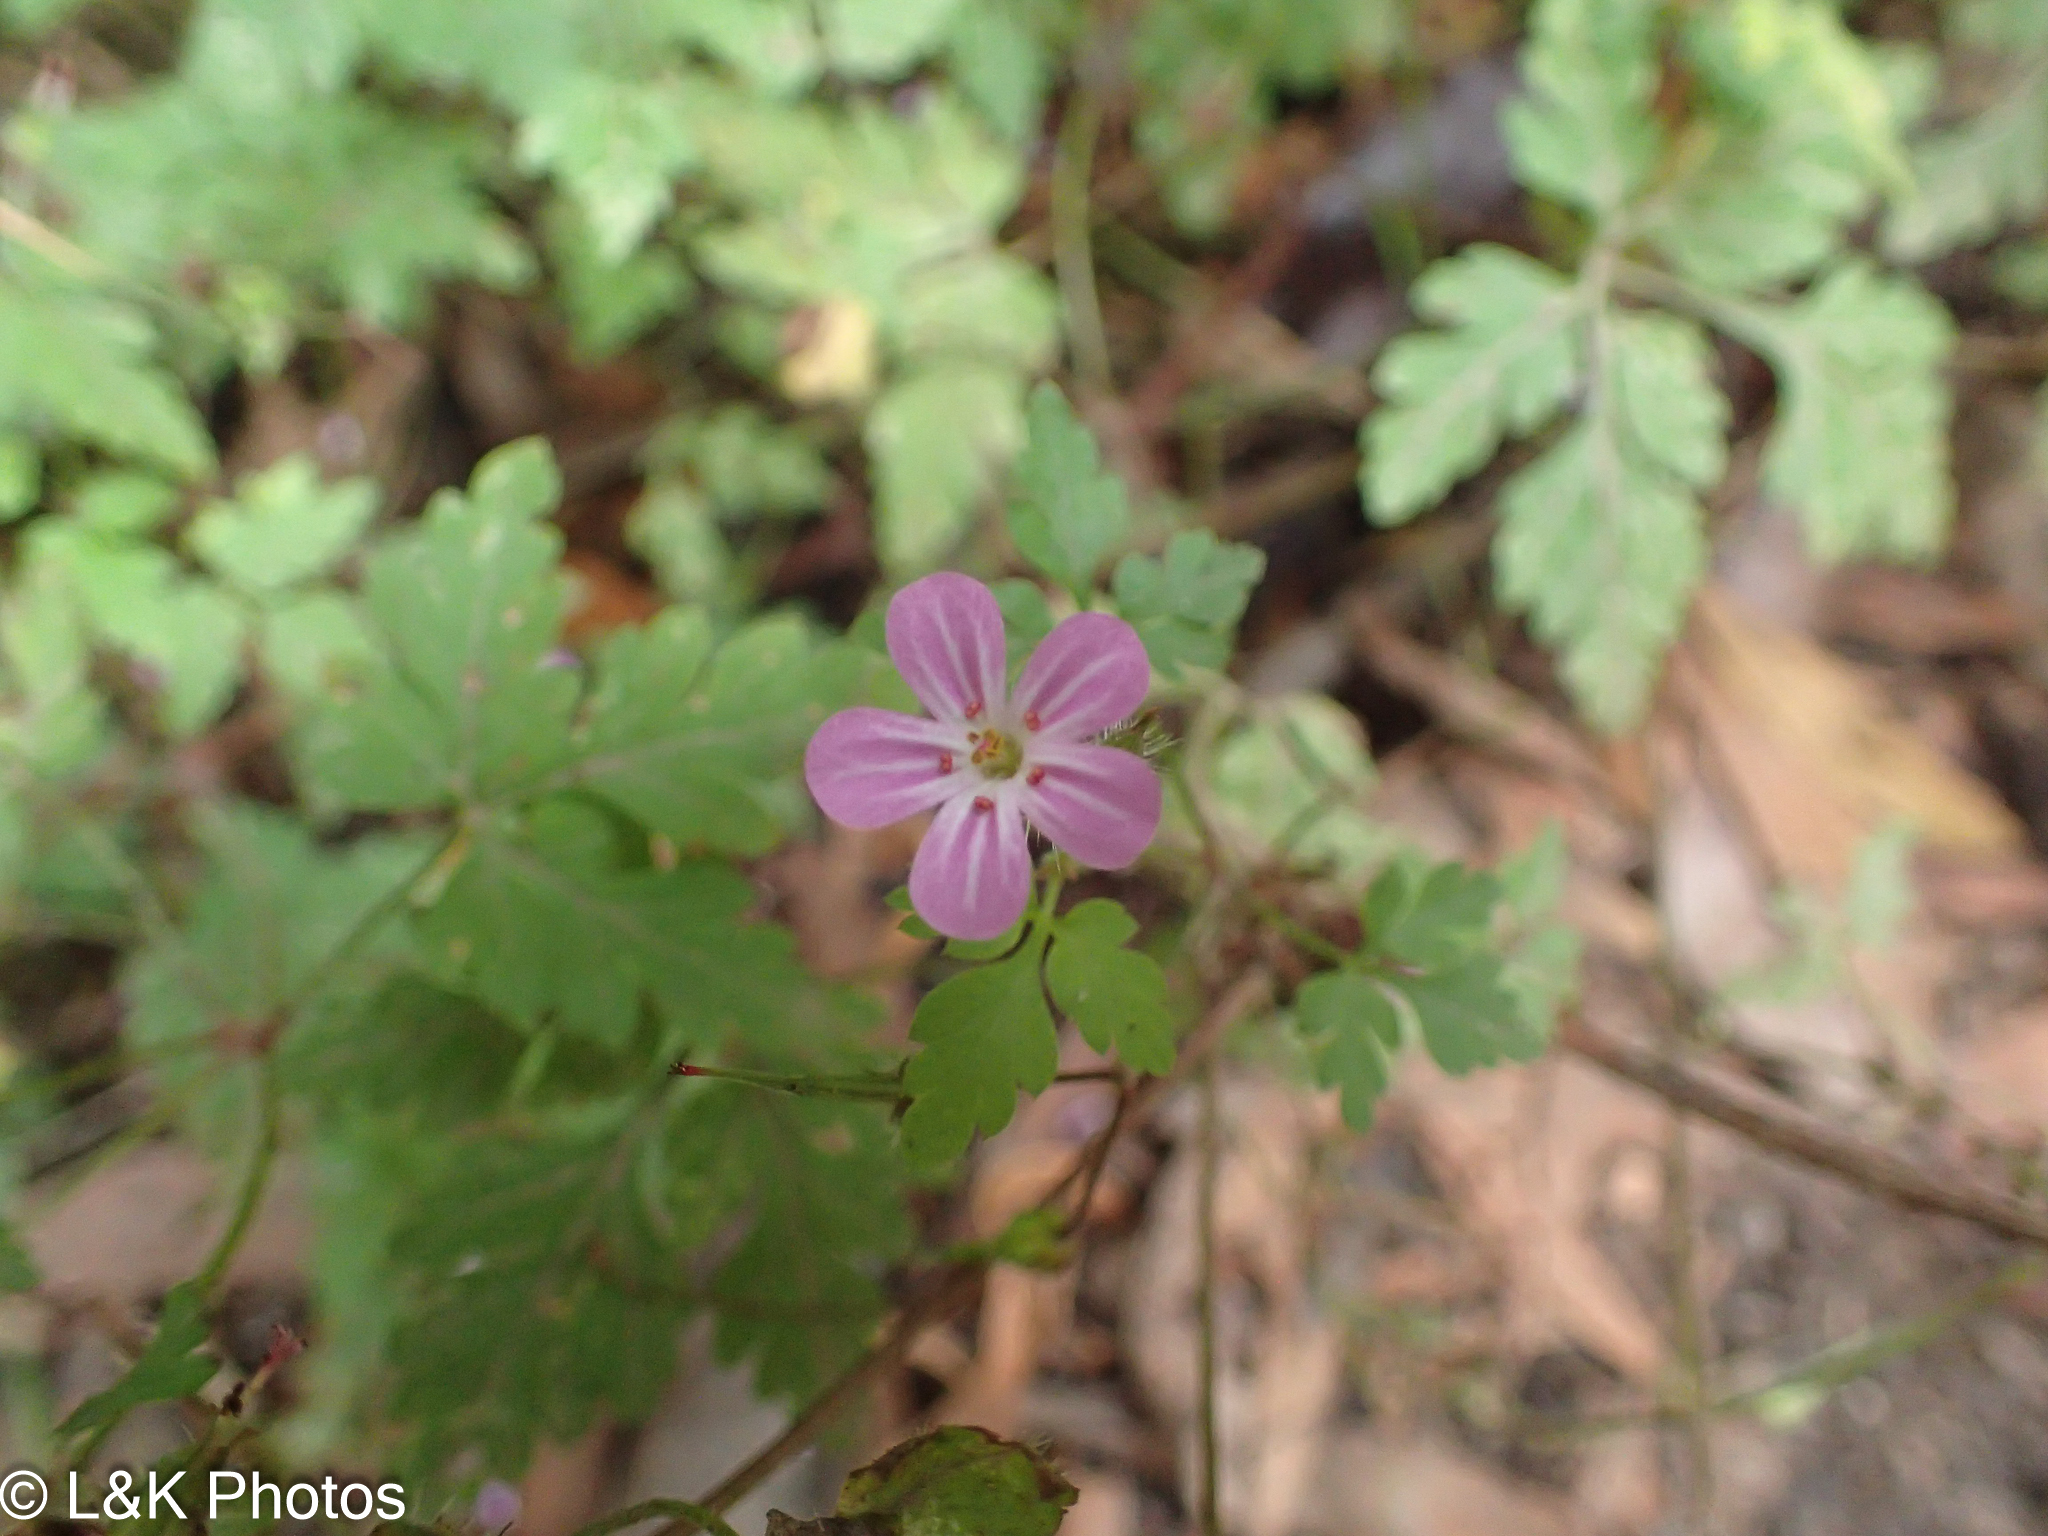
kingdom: Plantae
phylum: Tracheophyta
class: Magnoliopsida
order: Geraniales
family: Geraniaceae
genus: Geranium
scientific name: Geranium robertianum
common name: Herb-robert
